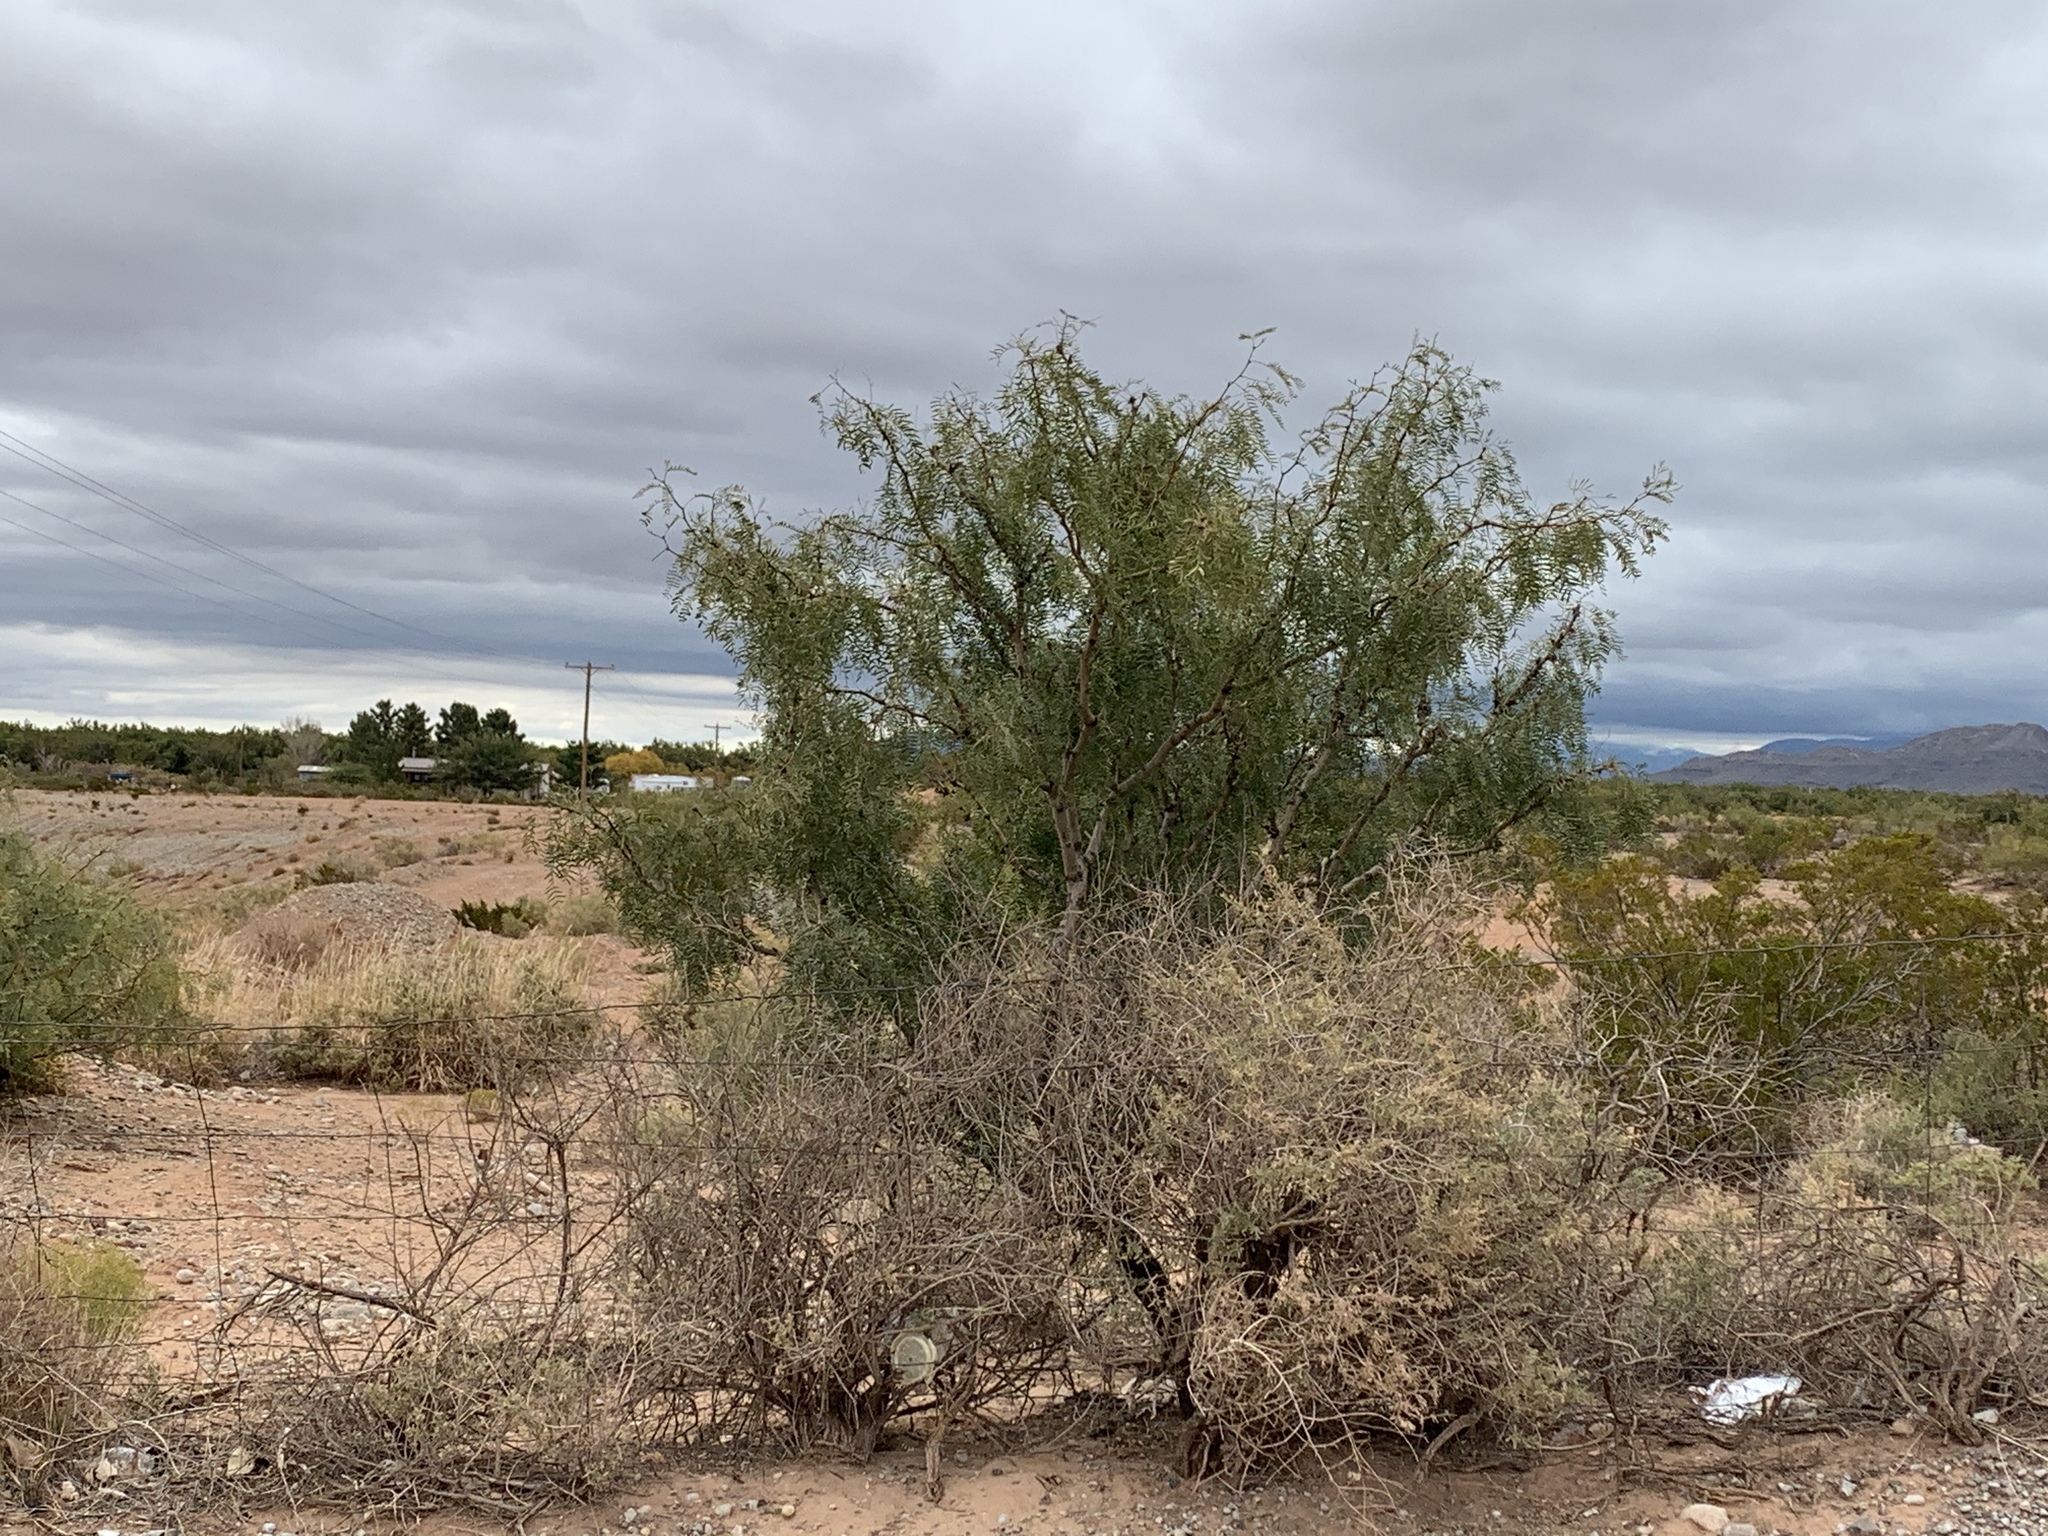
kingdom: Plantae
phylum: Tracheophyta
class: Magnoliopsida
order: Fabales
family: Fabaceae
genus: Prosopis
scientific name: Prosopis glandulosa
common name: Honey mesquite
